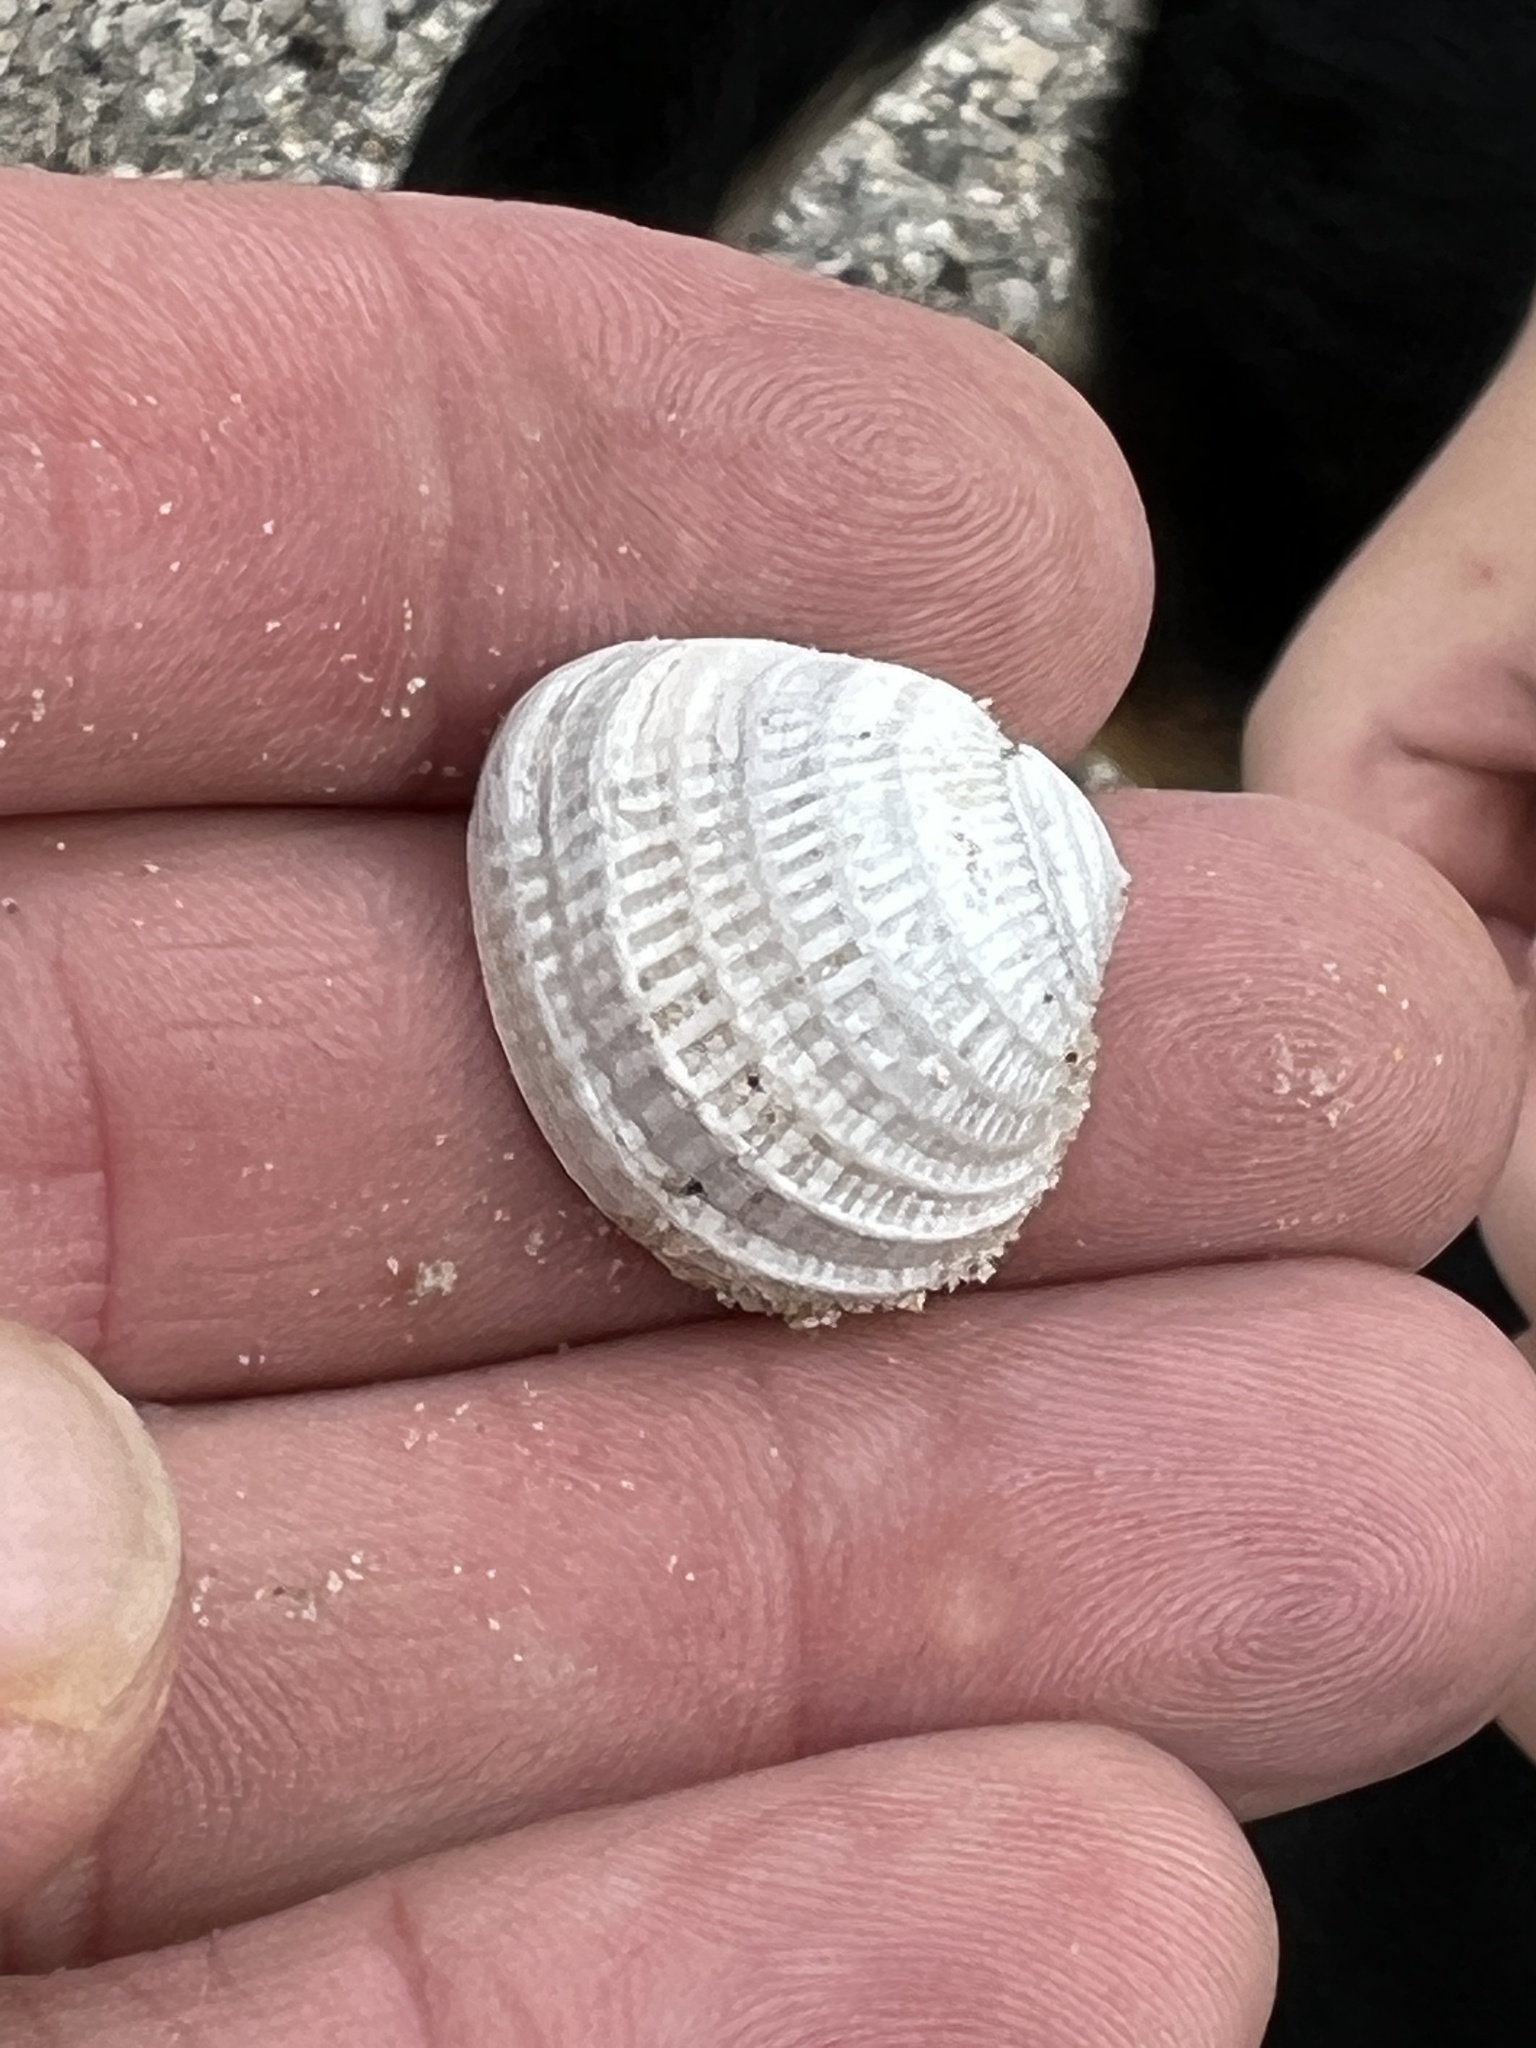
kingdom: Animalia
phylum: Mollusca
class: Bivalvia
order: Venerida
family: Veneridae
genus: Chione
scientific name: Chione elevata
